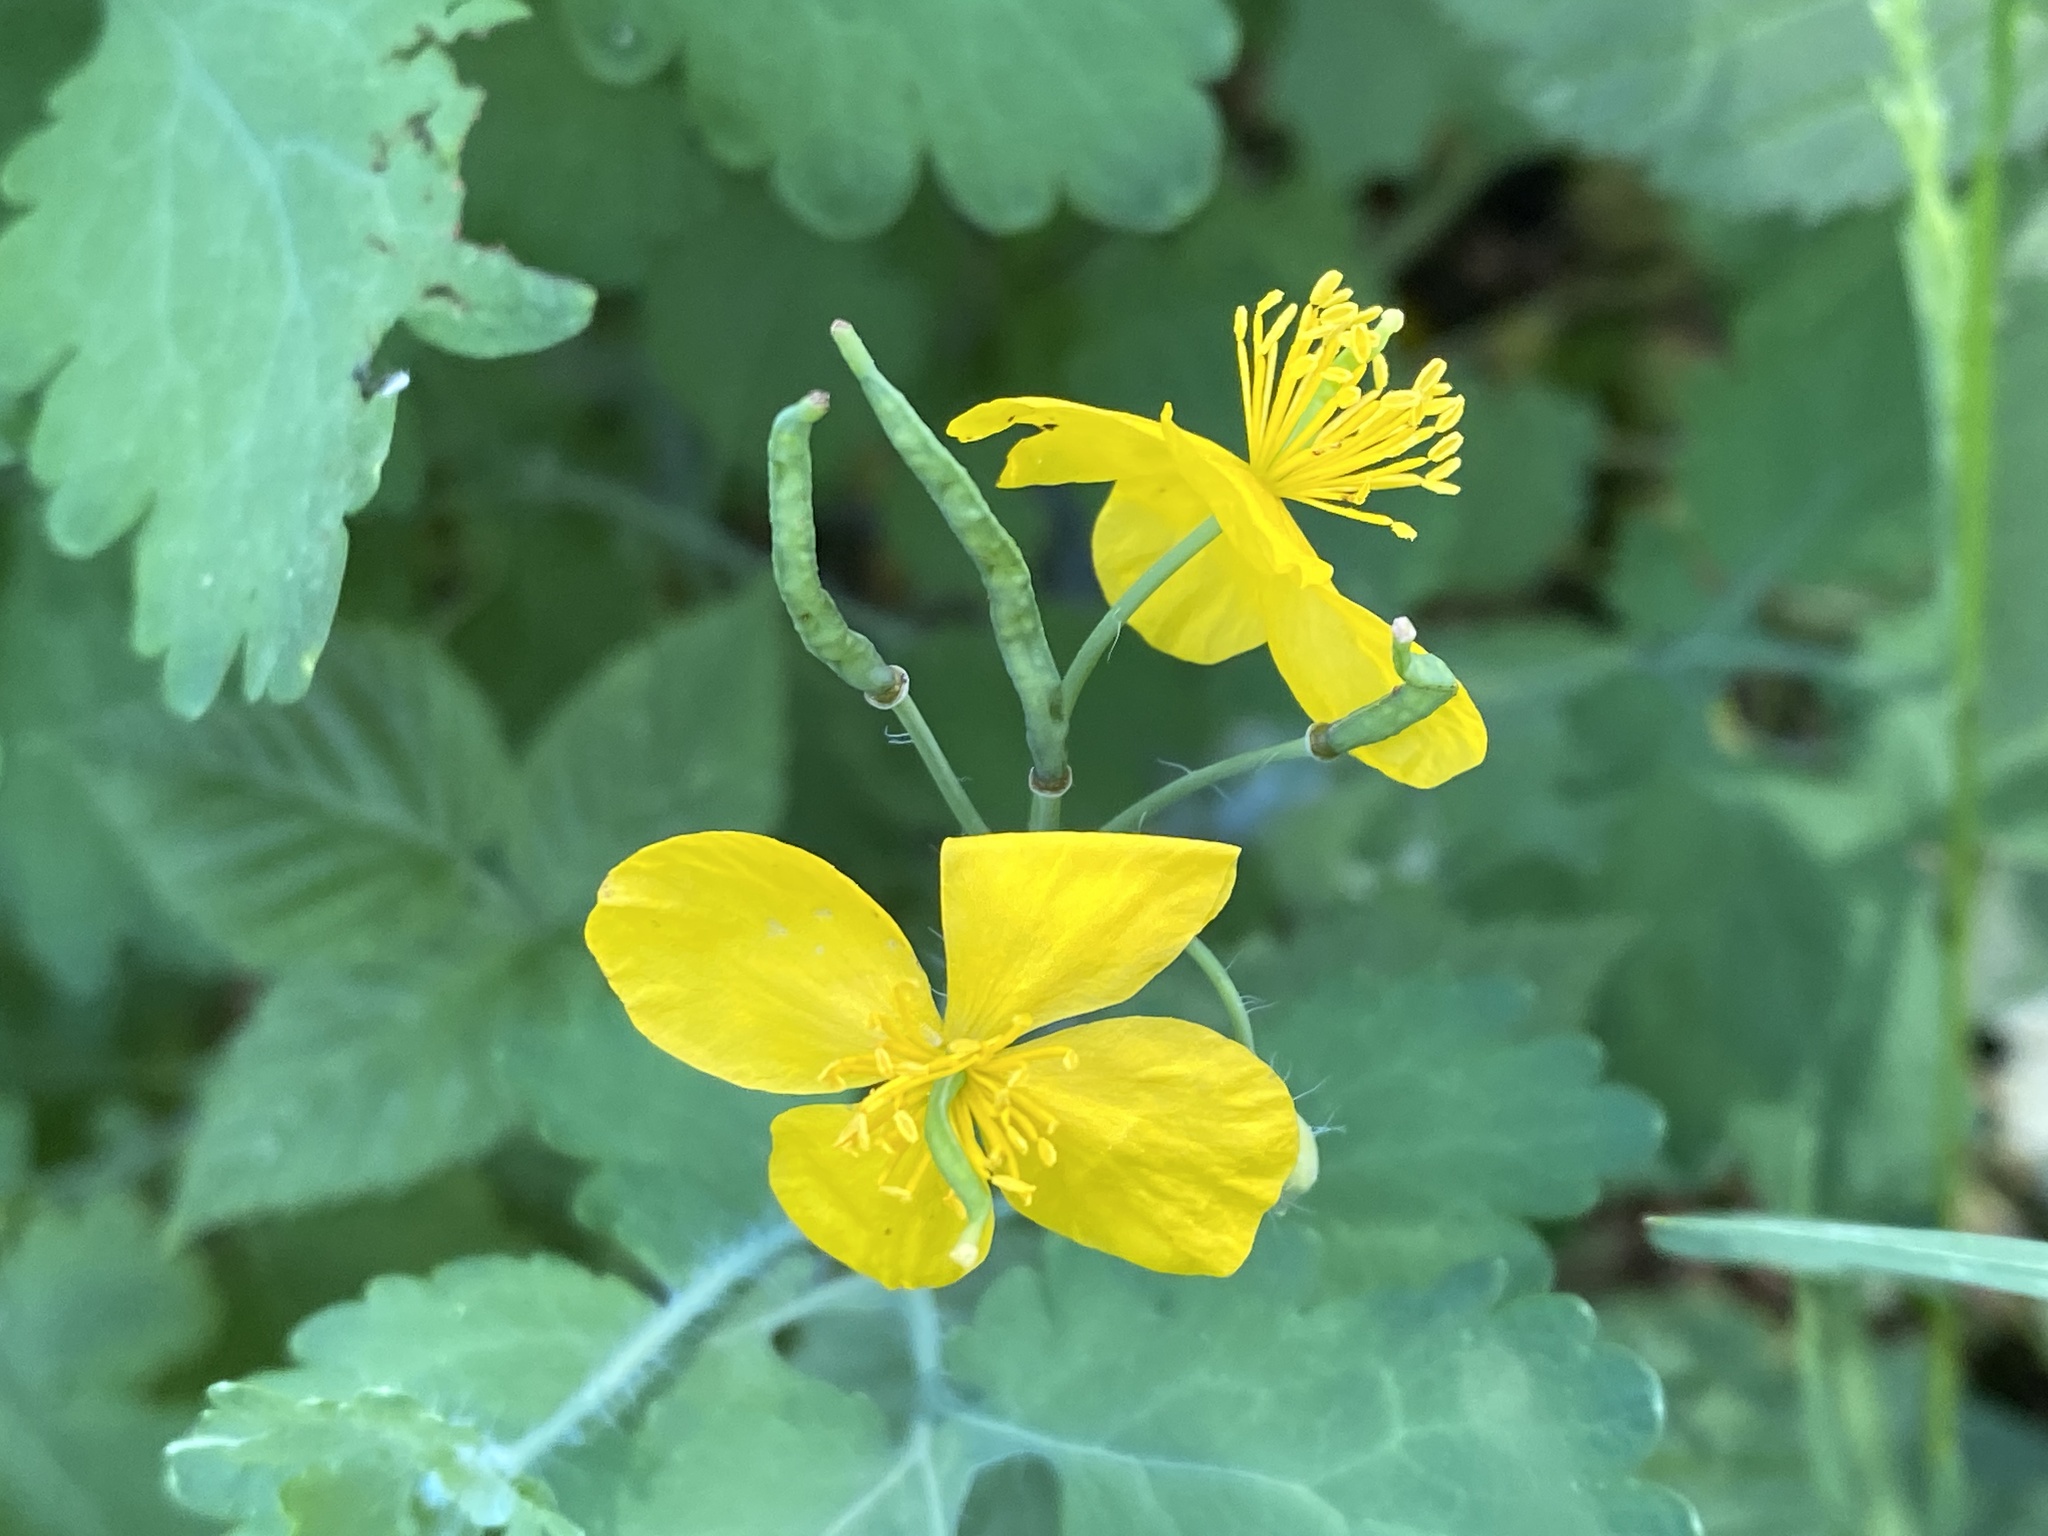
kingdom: Plantae
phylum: Tracheophyta
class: Magnoliopsida
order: Ranunculales
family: Papaveraceae
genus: Chelidonium
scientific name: Chelidonium majus
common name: Greater celandine
